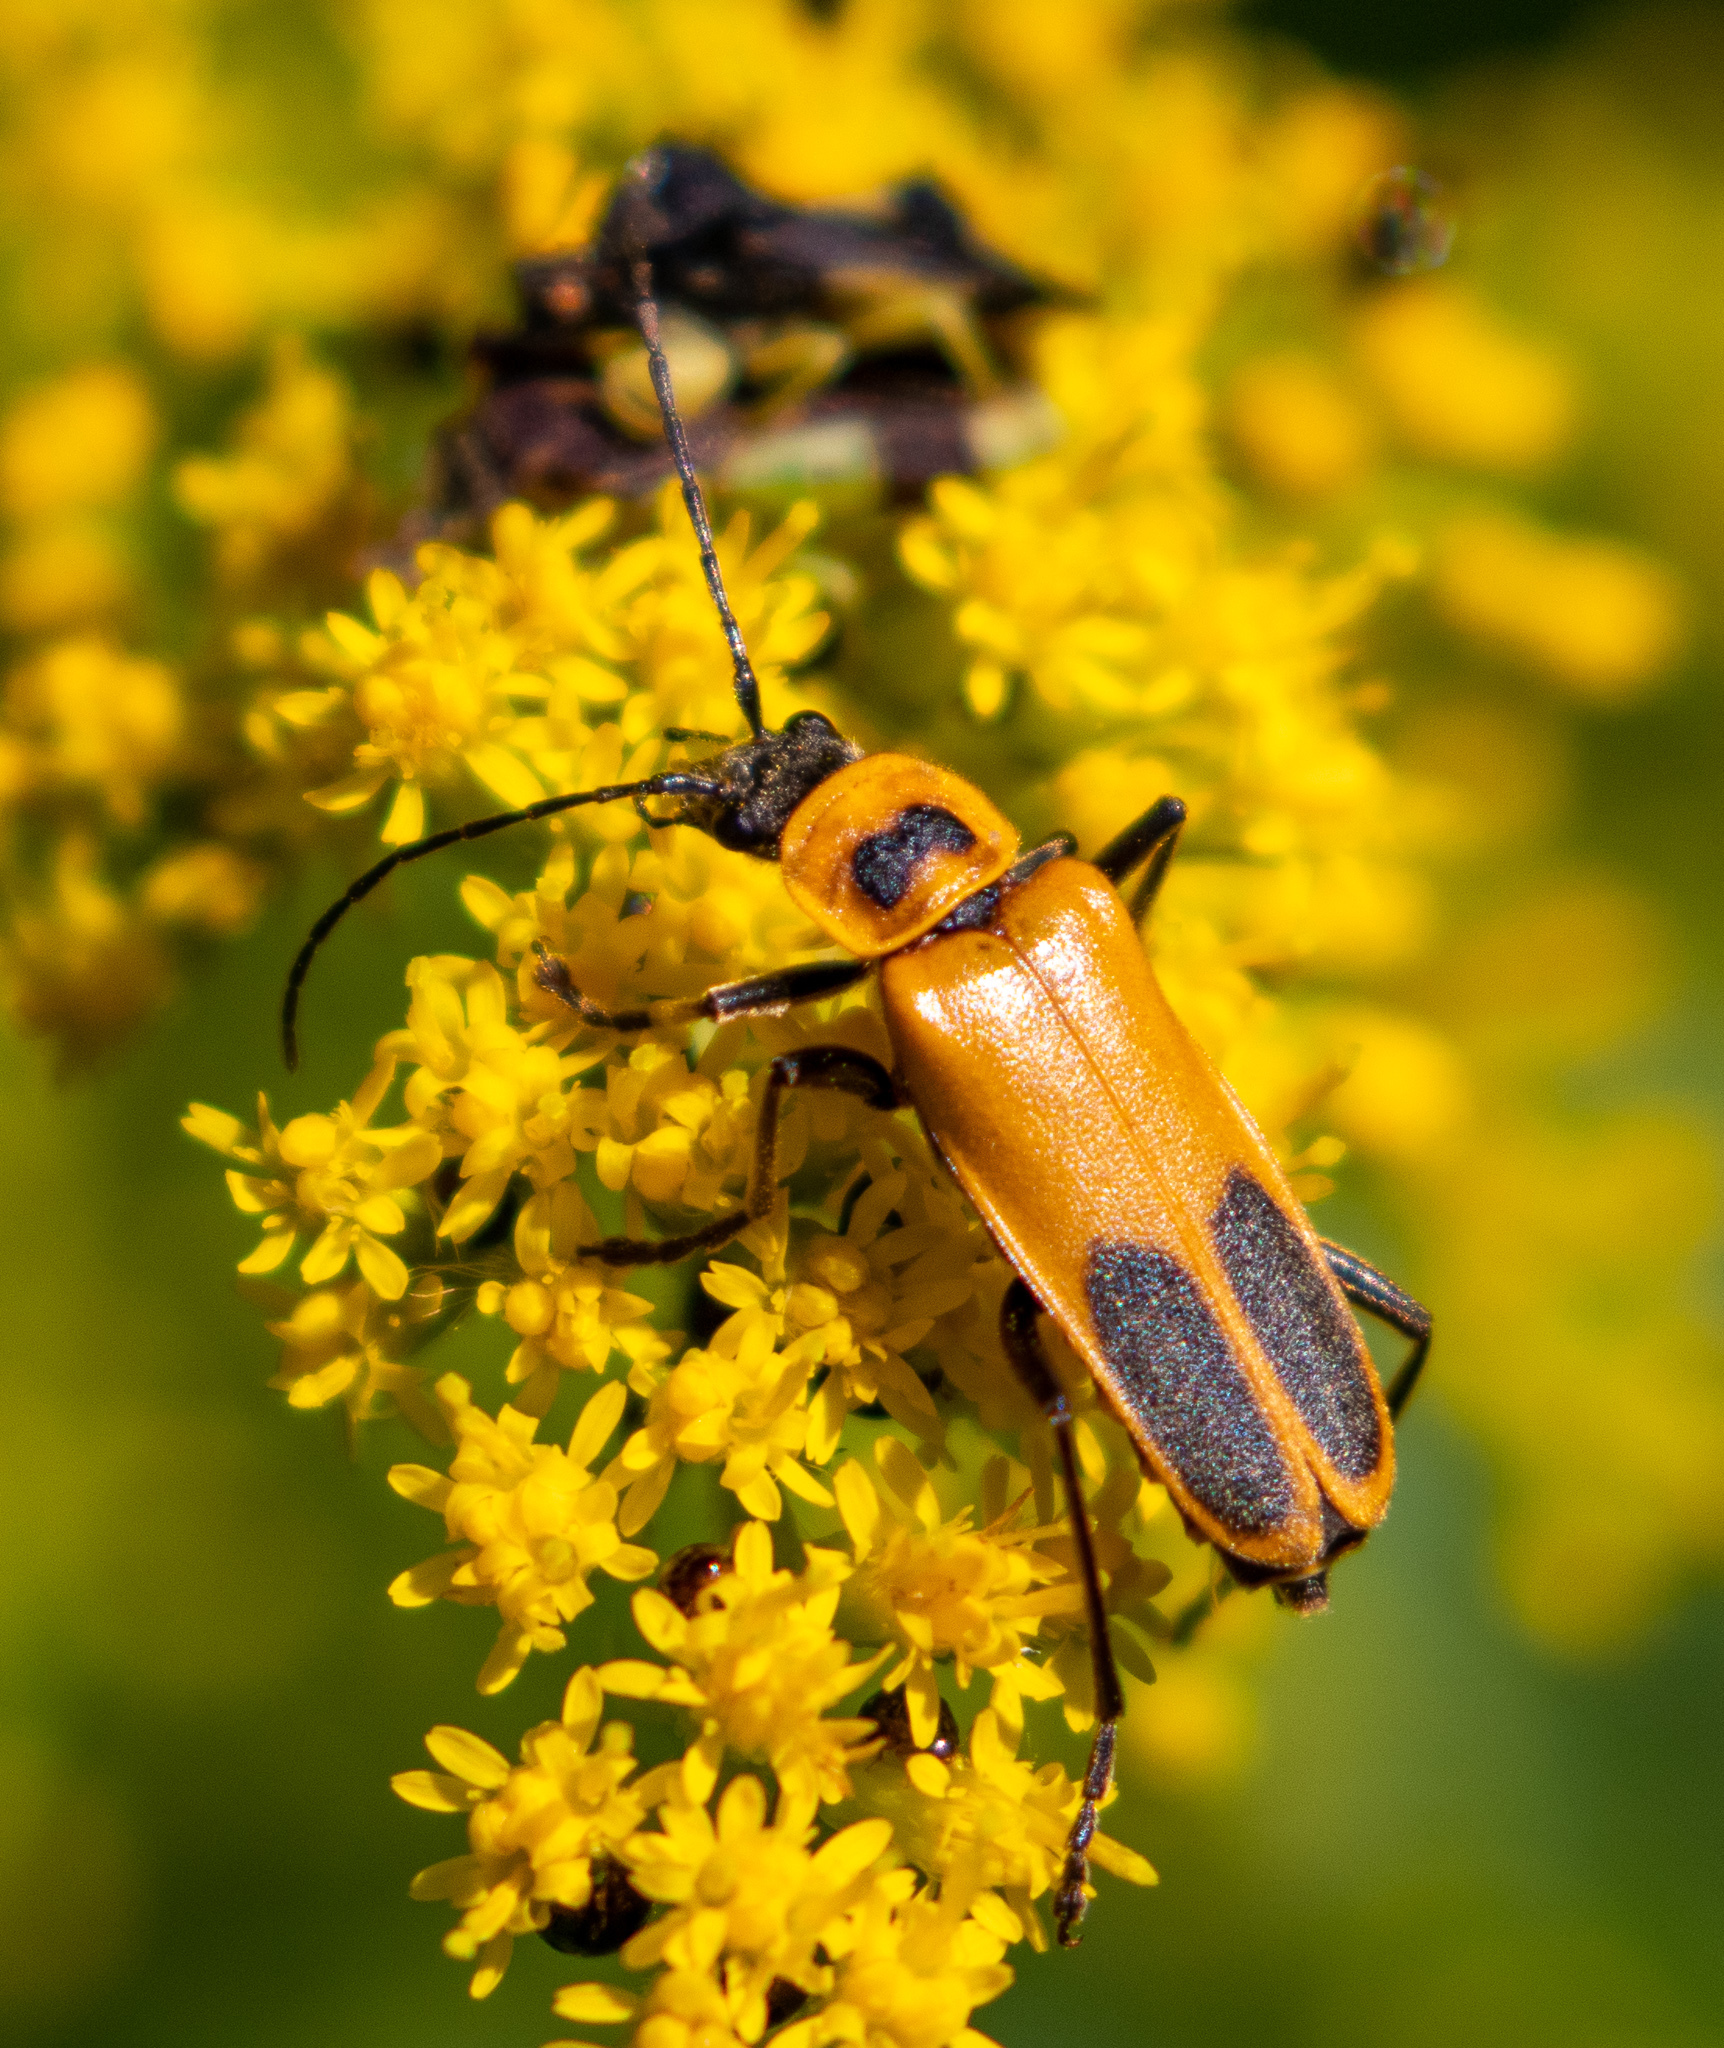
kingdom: Animalia
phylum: Arthropoda
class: Insecta
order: Coleoptera
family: Cantharidae
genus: Chauliognathus
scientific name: Chauliognathus pensylvanicus
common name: Goldenrod soldier beetle
